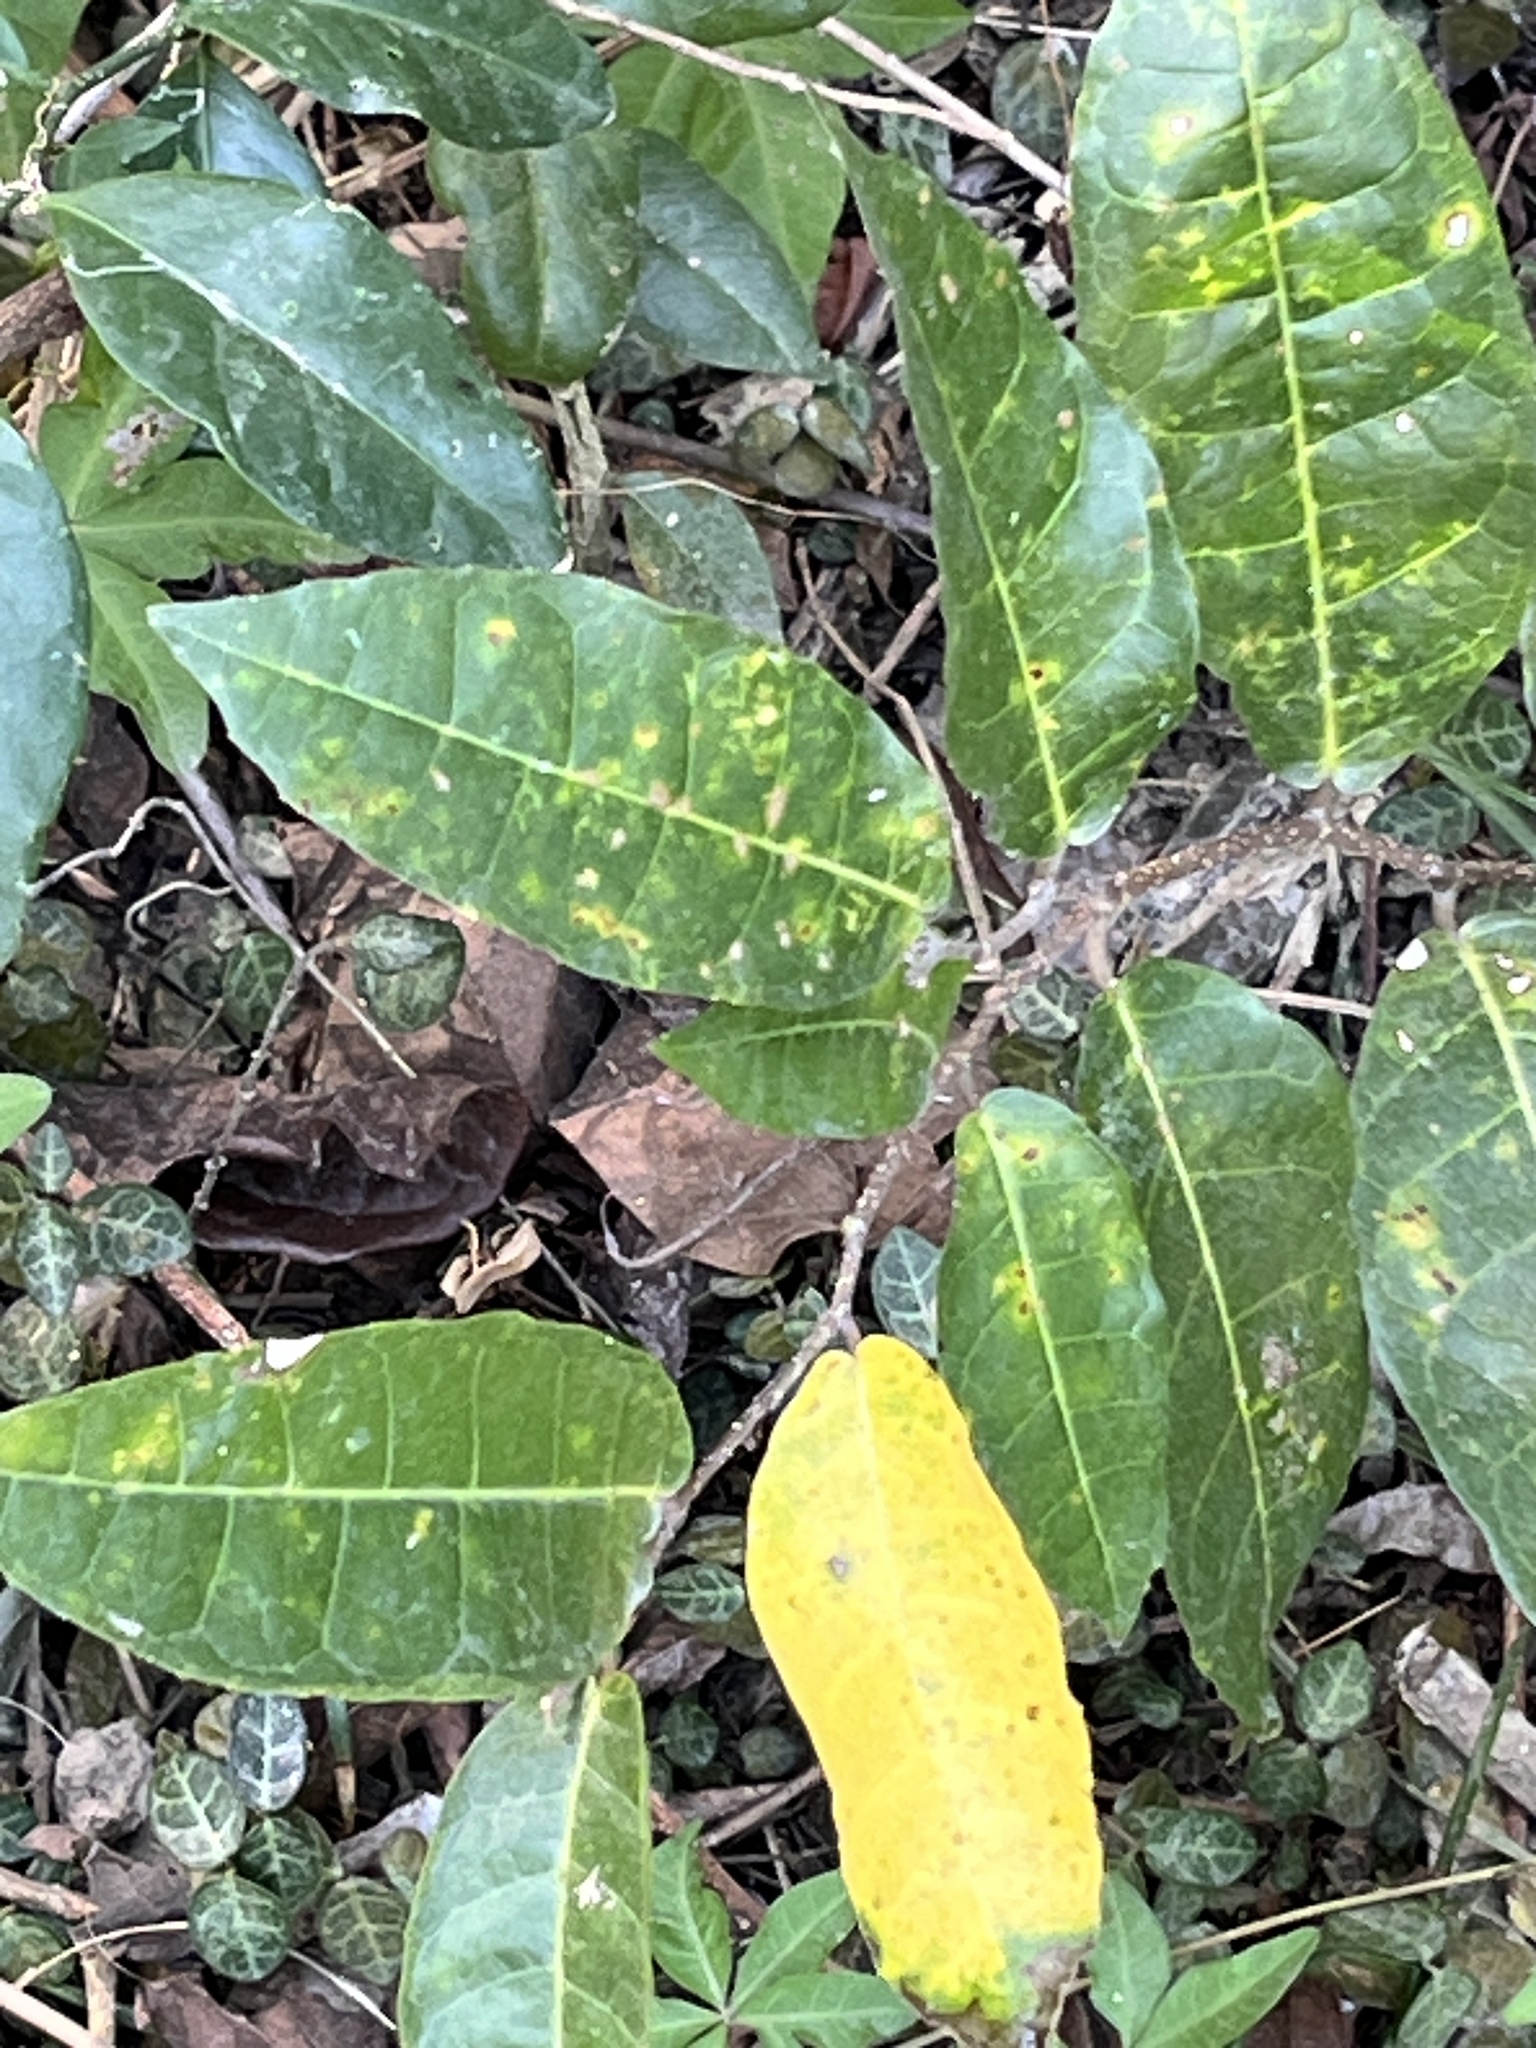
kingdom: Plantae
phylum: Tracheophyta
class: Magnoliopsida
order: Rosales
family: Moraceae
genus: Malaisia
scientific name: Malaisia scandens
